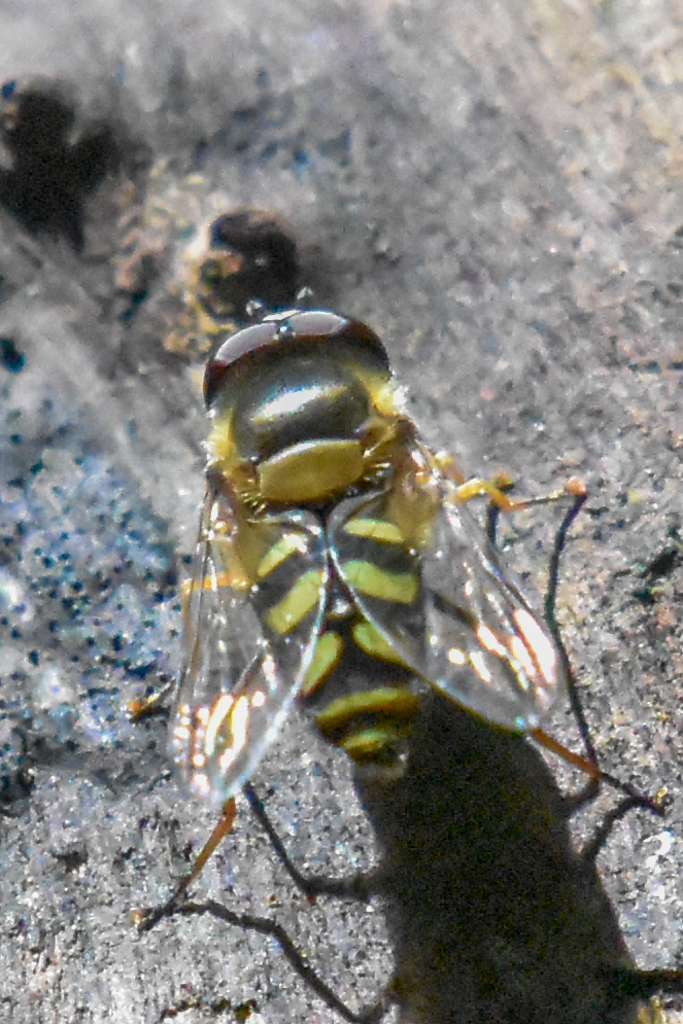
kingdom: Animalia
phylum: Arthropoda
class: Insecta
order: Diptera
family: Syrphidae
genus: Lapposyrphus
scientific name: Lapposyrphus lapponicus
